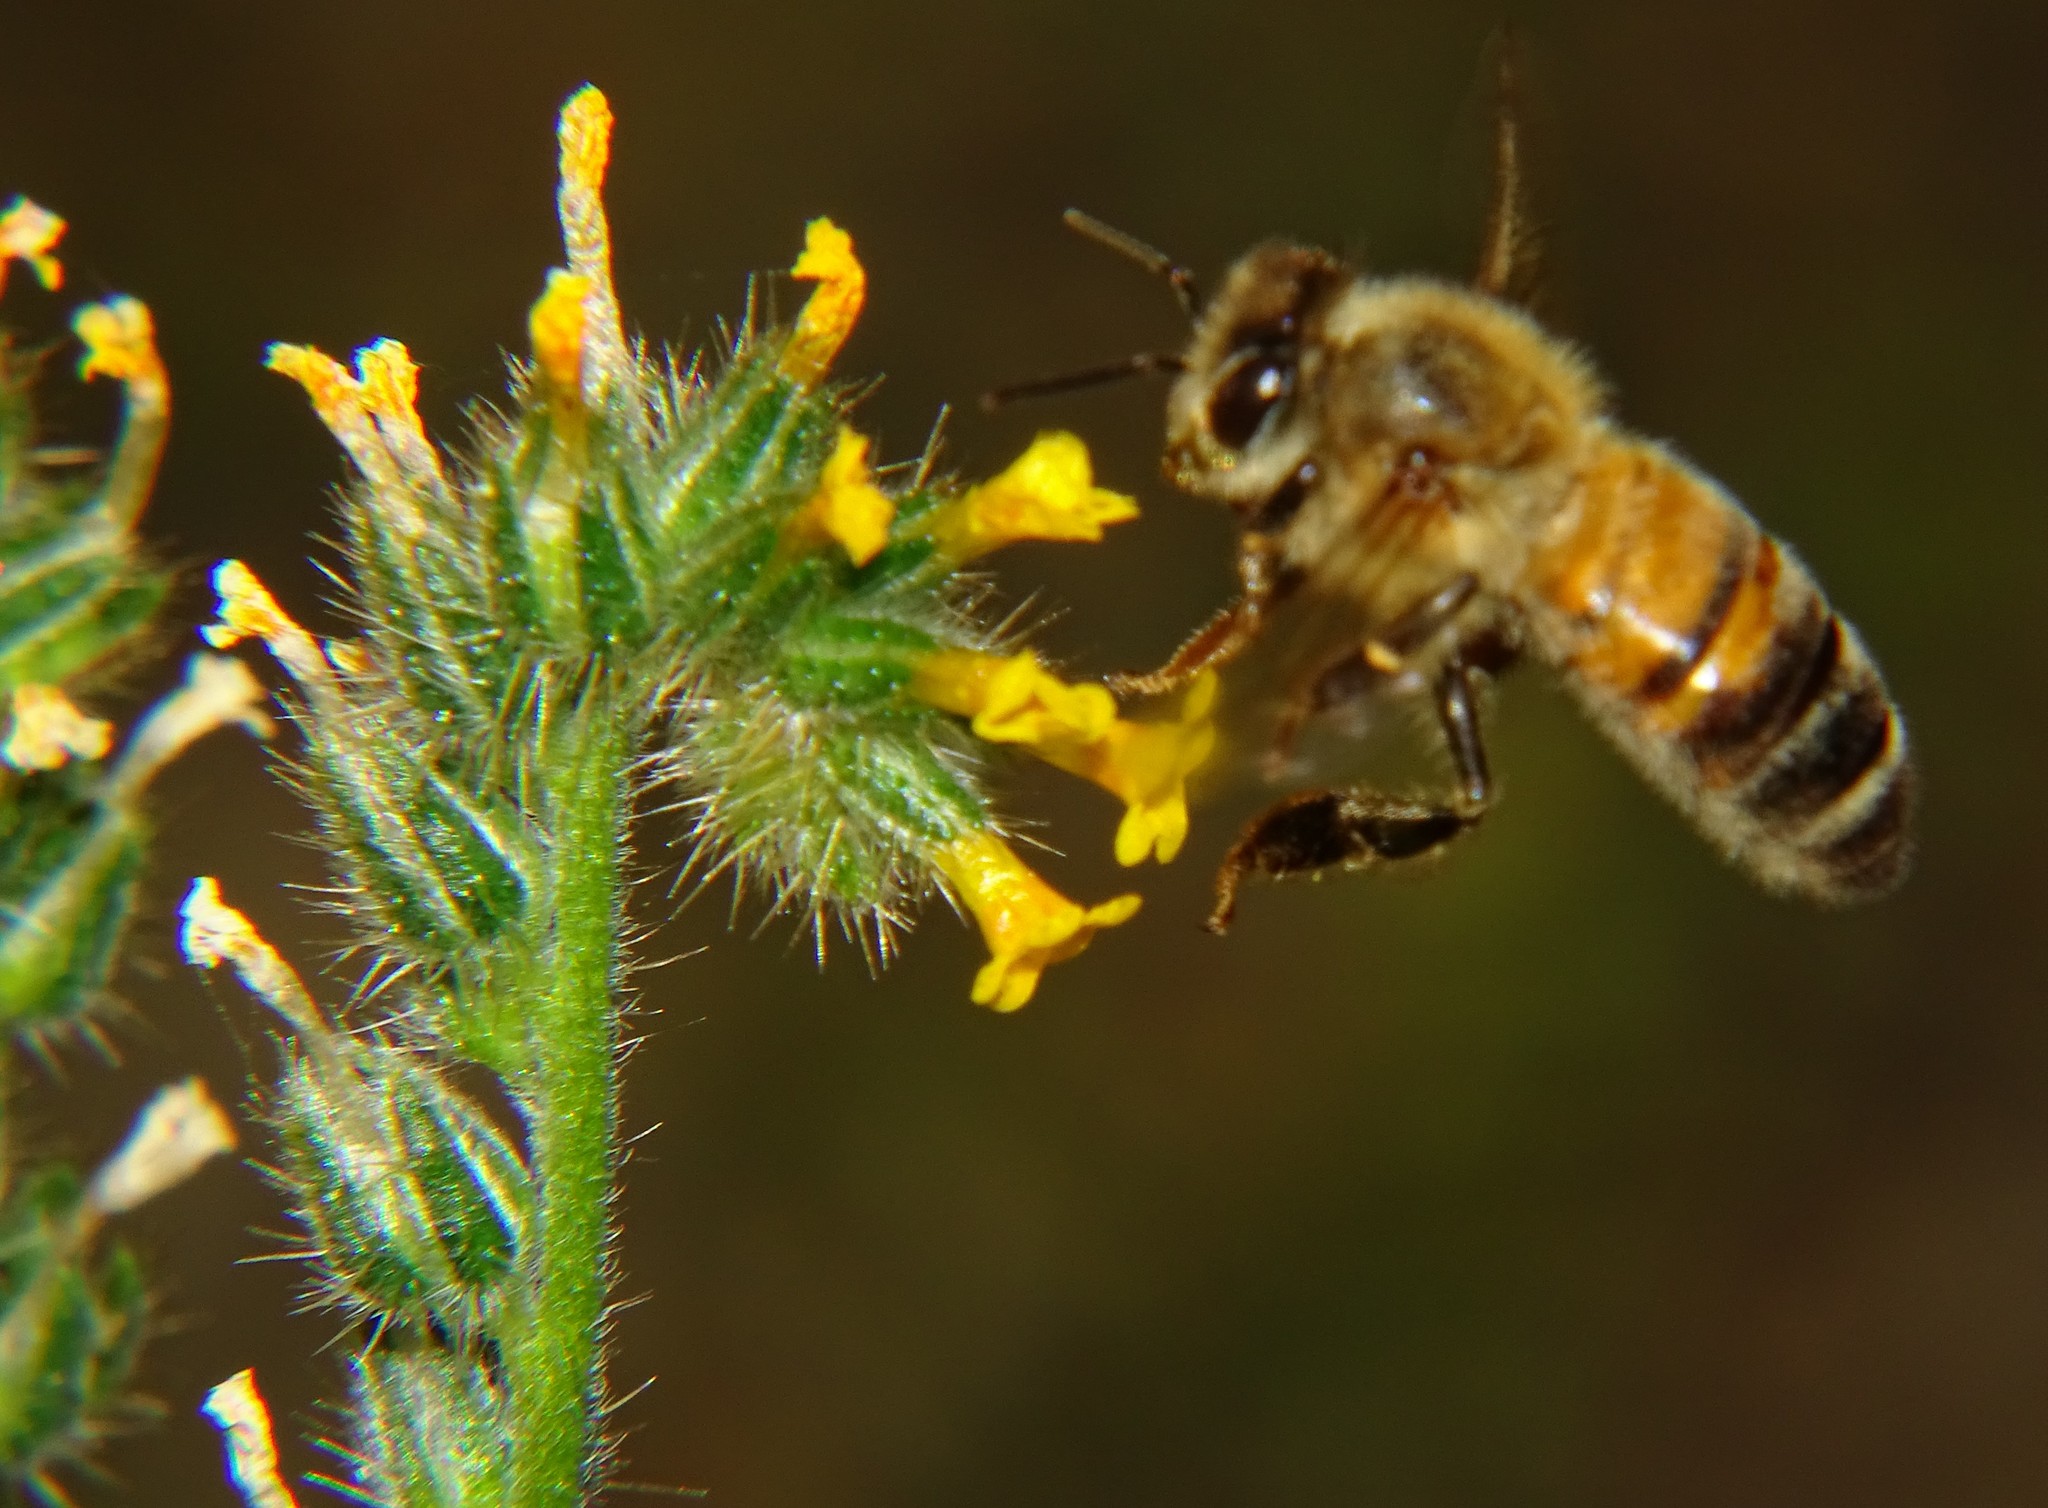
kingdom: Animalia
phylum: Arthropoda
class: Insecta
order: Hymenoptera
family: Apidae
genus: Apis
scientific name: Apis mellifera
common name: Honey bee
